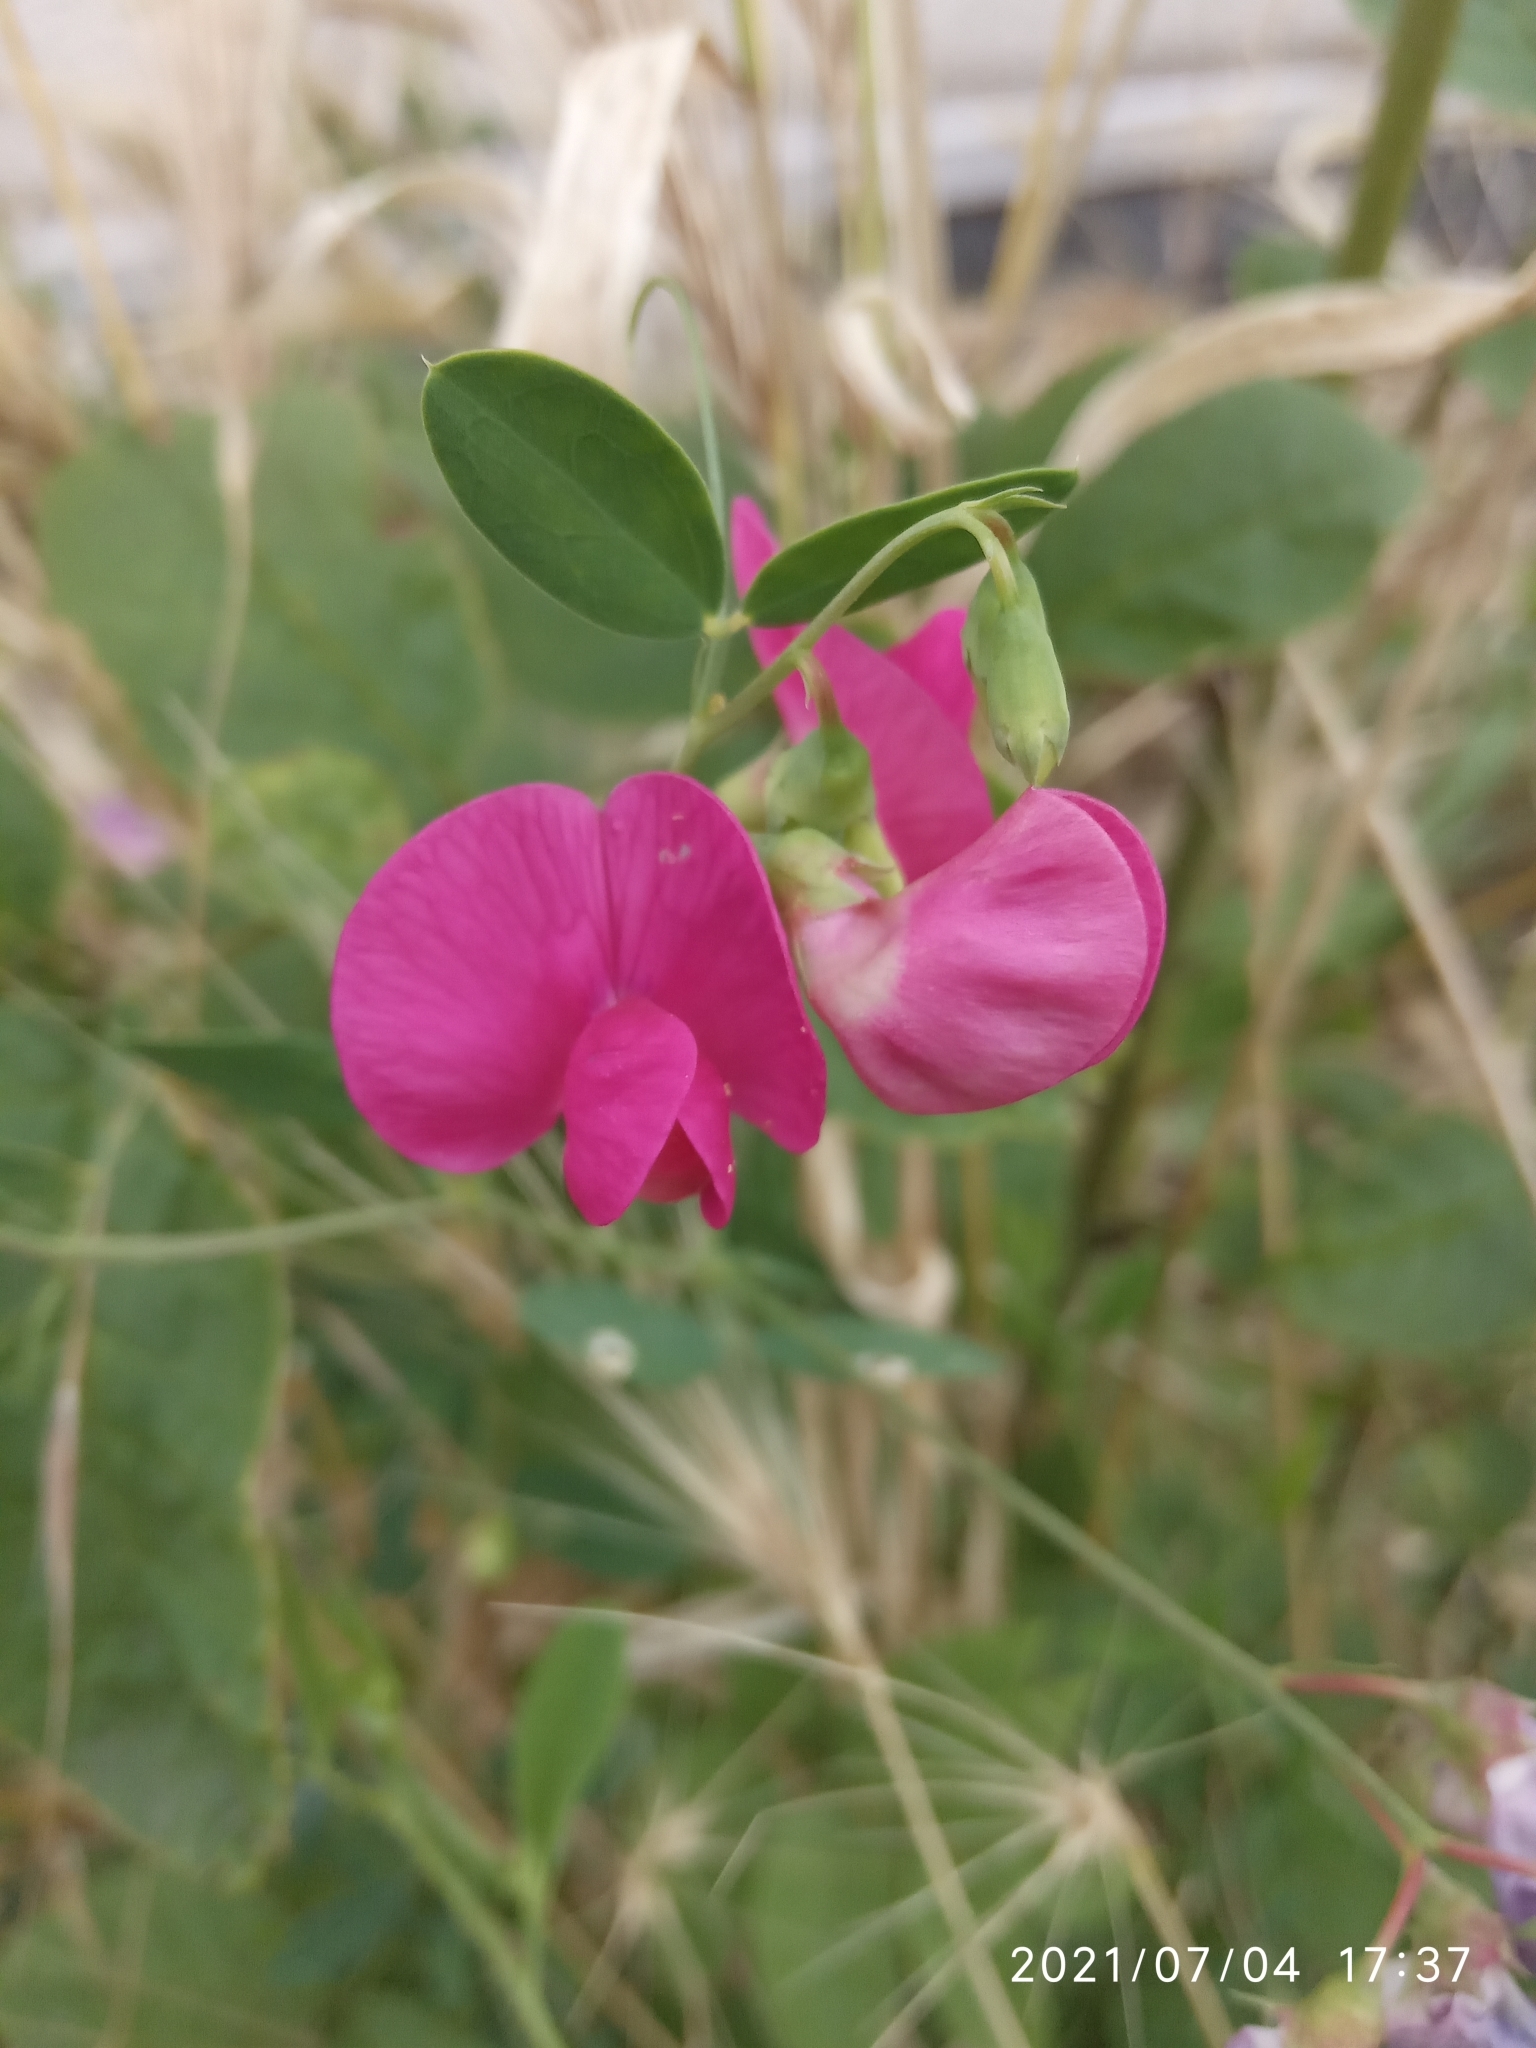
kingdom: Plantae
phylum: Tracheophyta
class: Magnoliopsida
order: Fabales
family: Fabaceae
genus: Lathyrus
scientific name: Lathyrus tuberosus
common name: Tuberous pea
